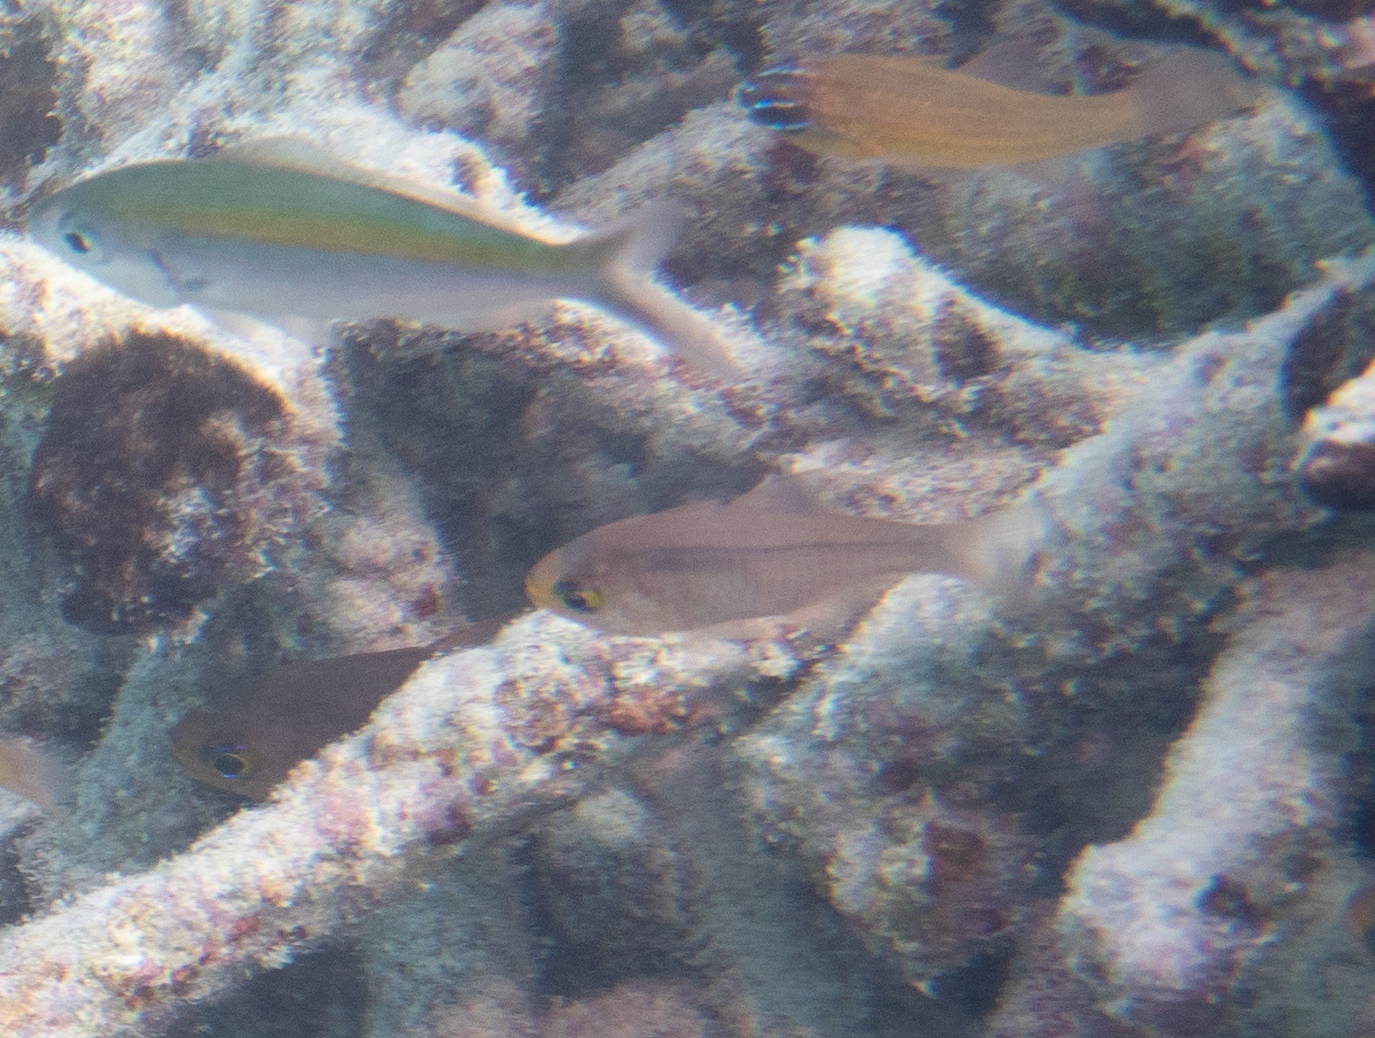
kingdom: Animalia
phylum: Chordata
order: Perciformes
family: Apogonidae
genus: Nectamia
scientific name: Nectamia fusca
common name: Ghost cardinalfish
